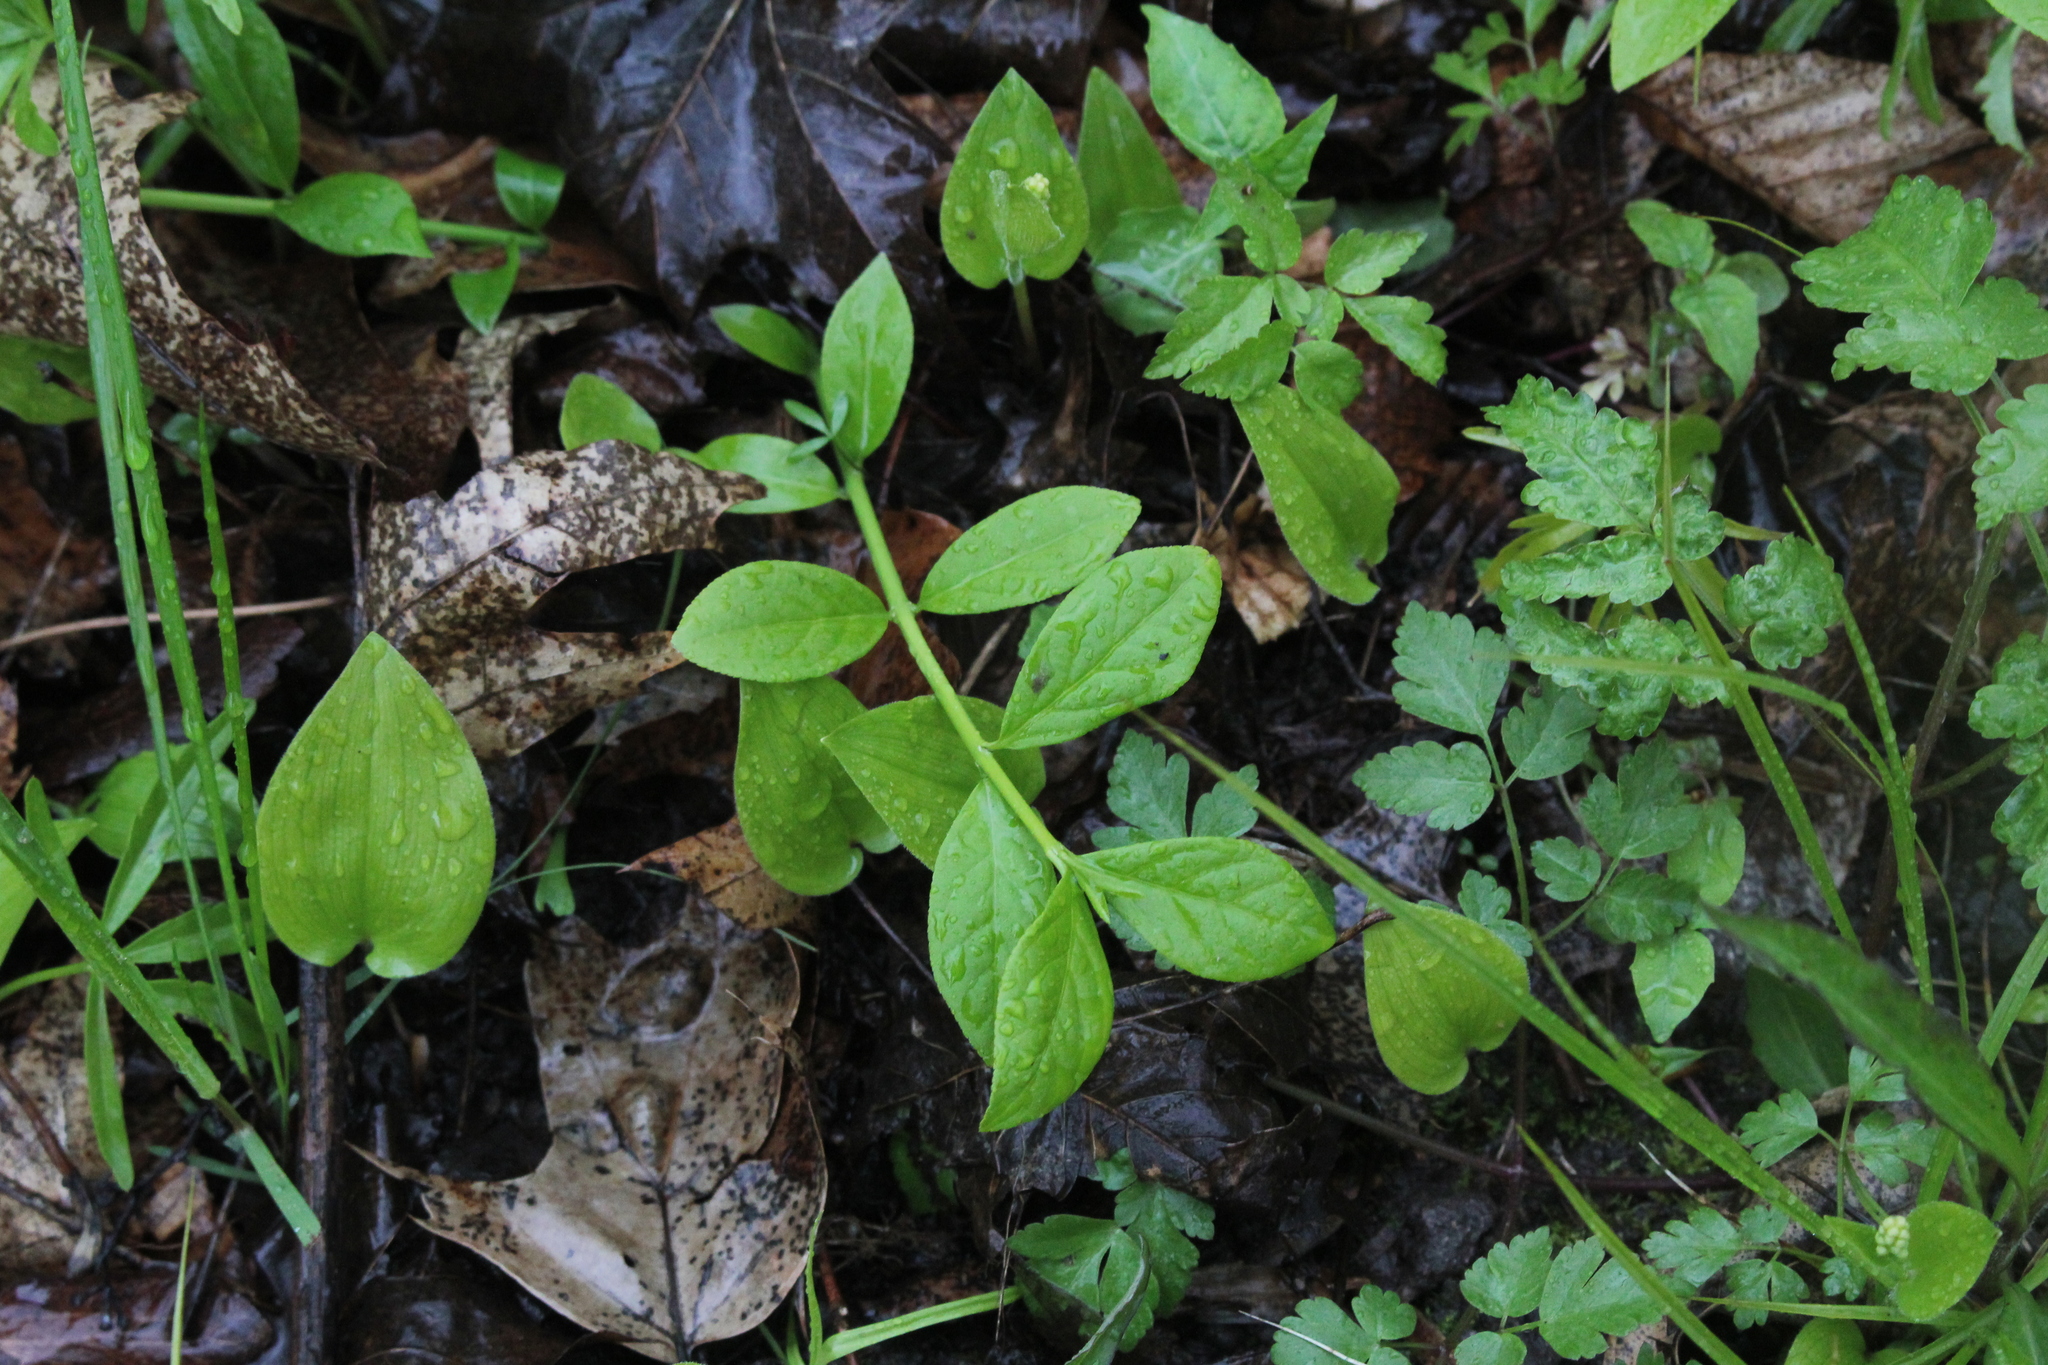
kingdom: Plantae
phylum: Tracheophyta
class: Magnoliopsida
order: Celastrales
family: Celastraceae
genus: Euonymus
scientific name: Euonymus obovatus
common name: Running strawberry-bush
